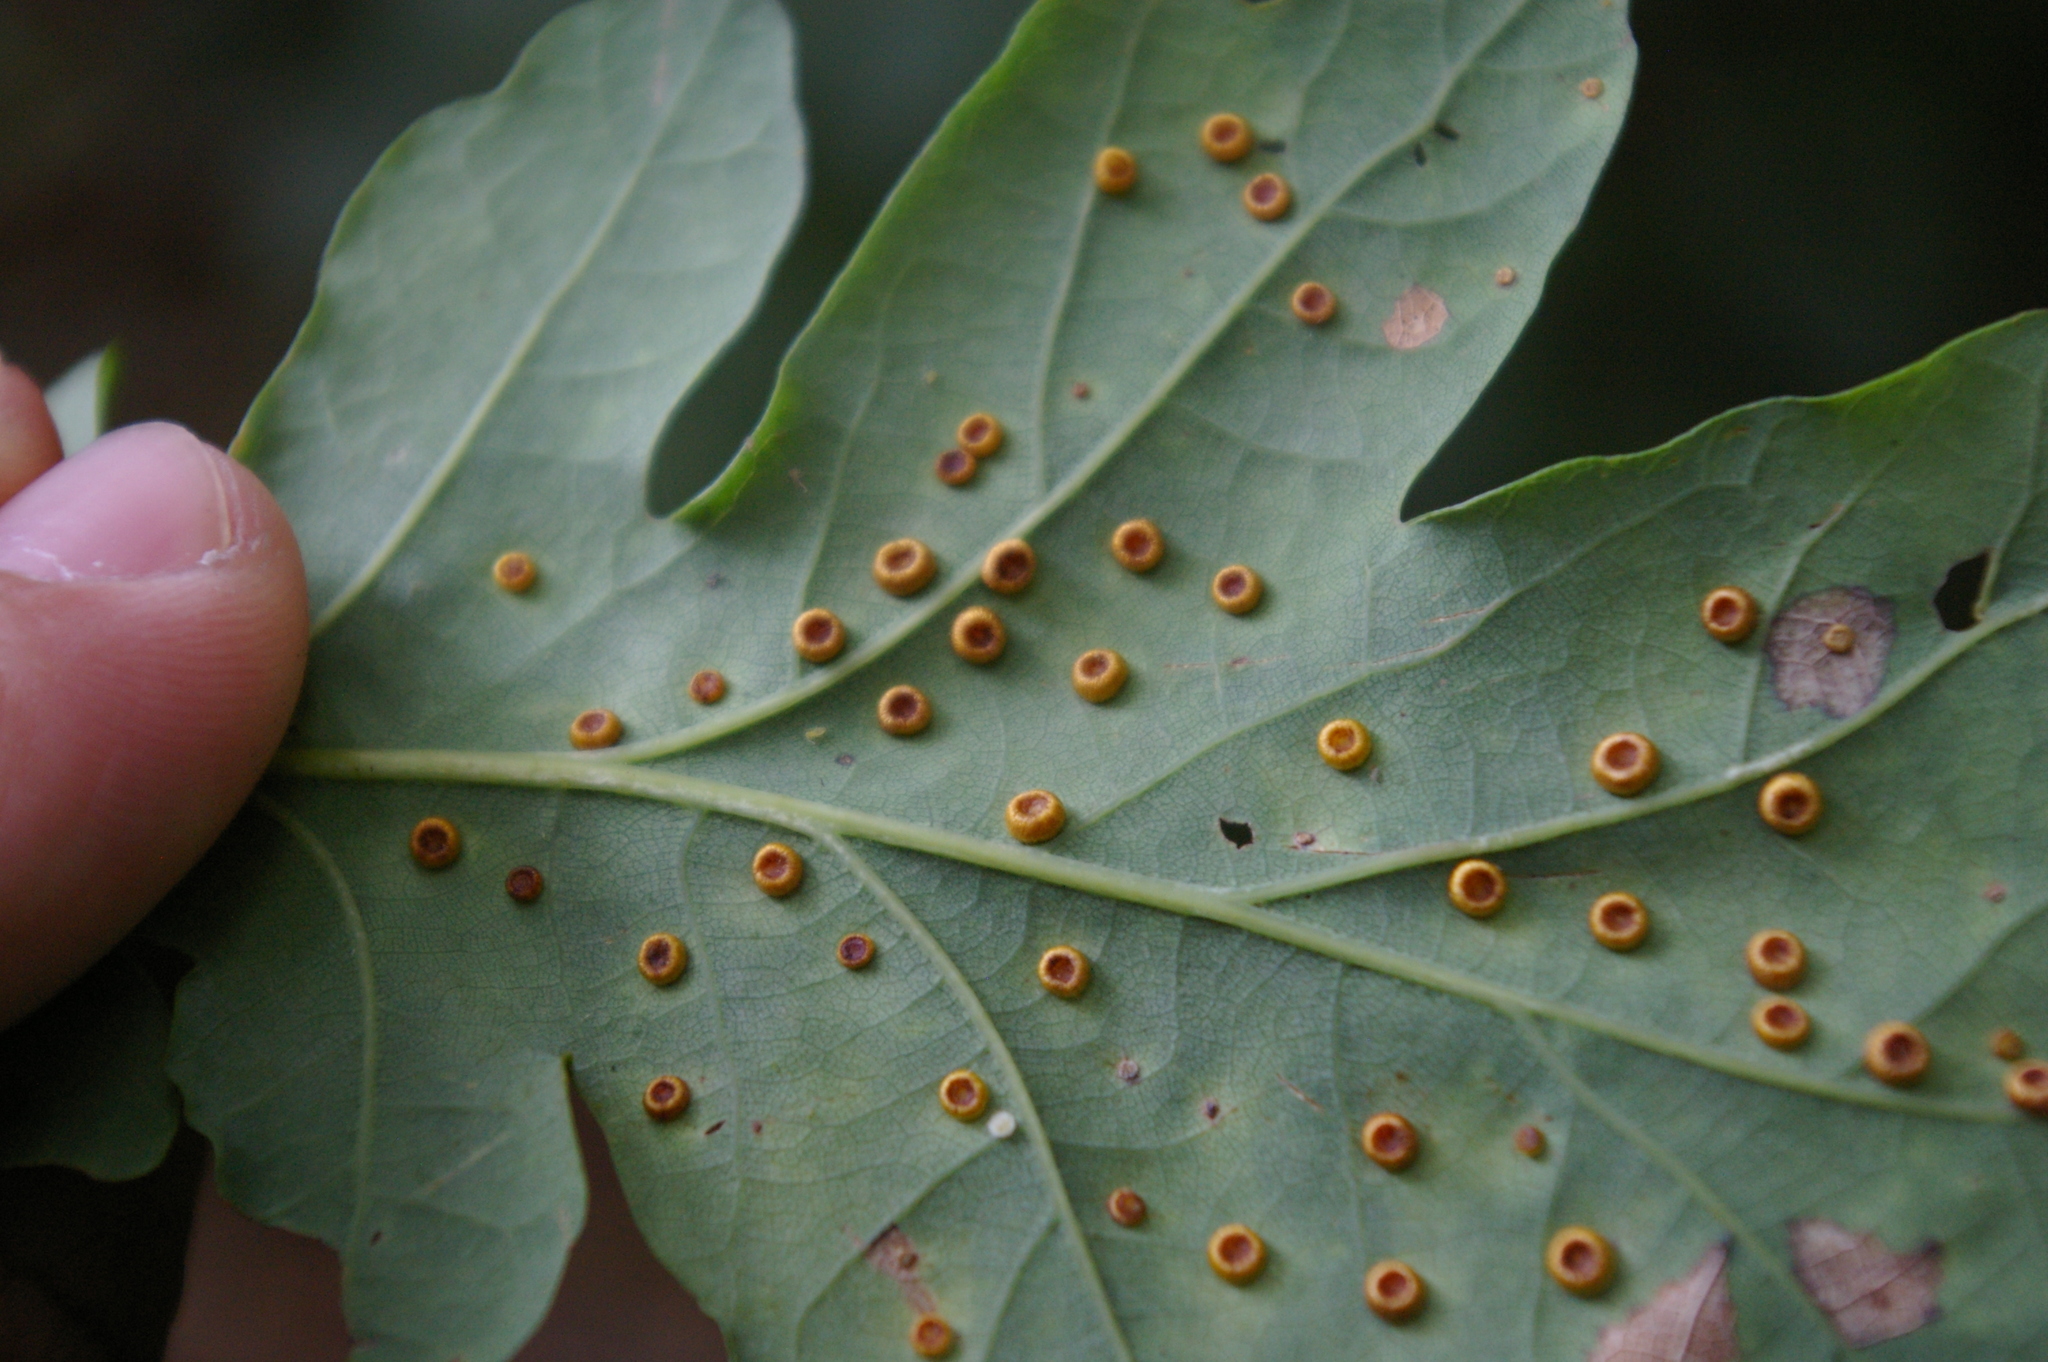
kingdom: Animalia
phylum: Arthropoda
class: Insecta
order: Hymenoptera
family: Cynipidae
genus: Neuroterus
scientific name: Neuroterus numismalis
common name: Silk-button spangle gall
